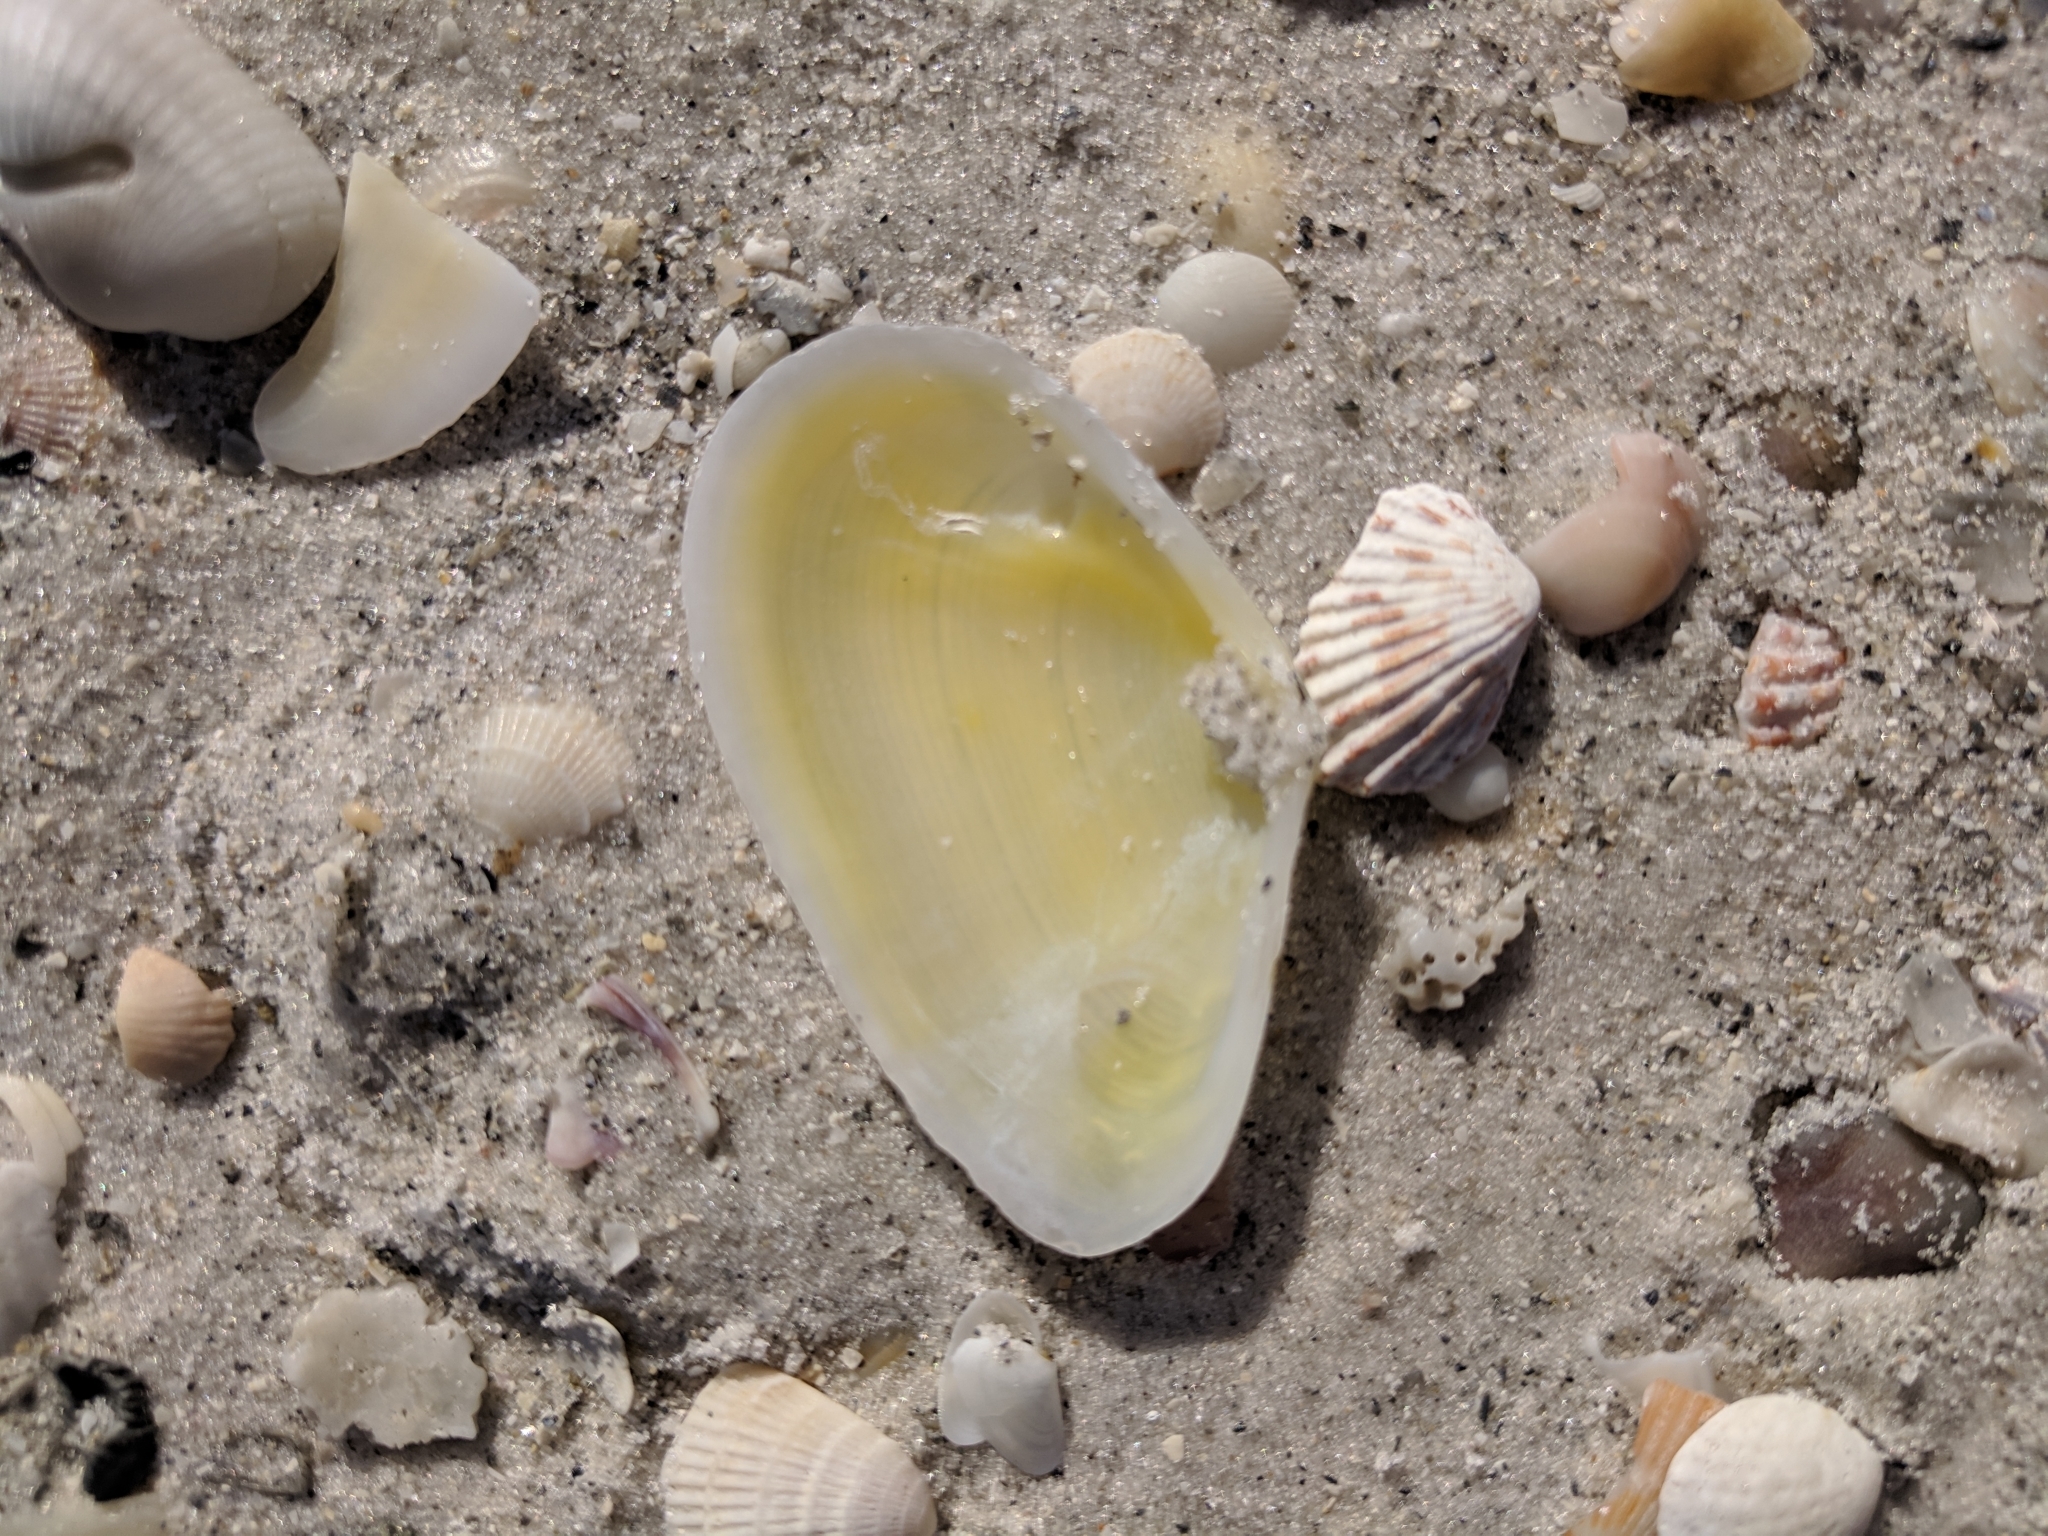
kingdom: Animalia
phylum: Mollusca
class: Bivalvia
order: Cardiida
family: Tellinidae
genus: Eurytellina
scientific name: Eurytellina alternata
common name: Alternate tellin
